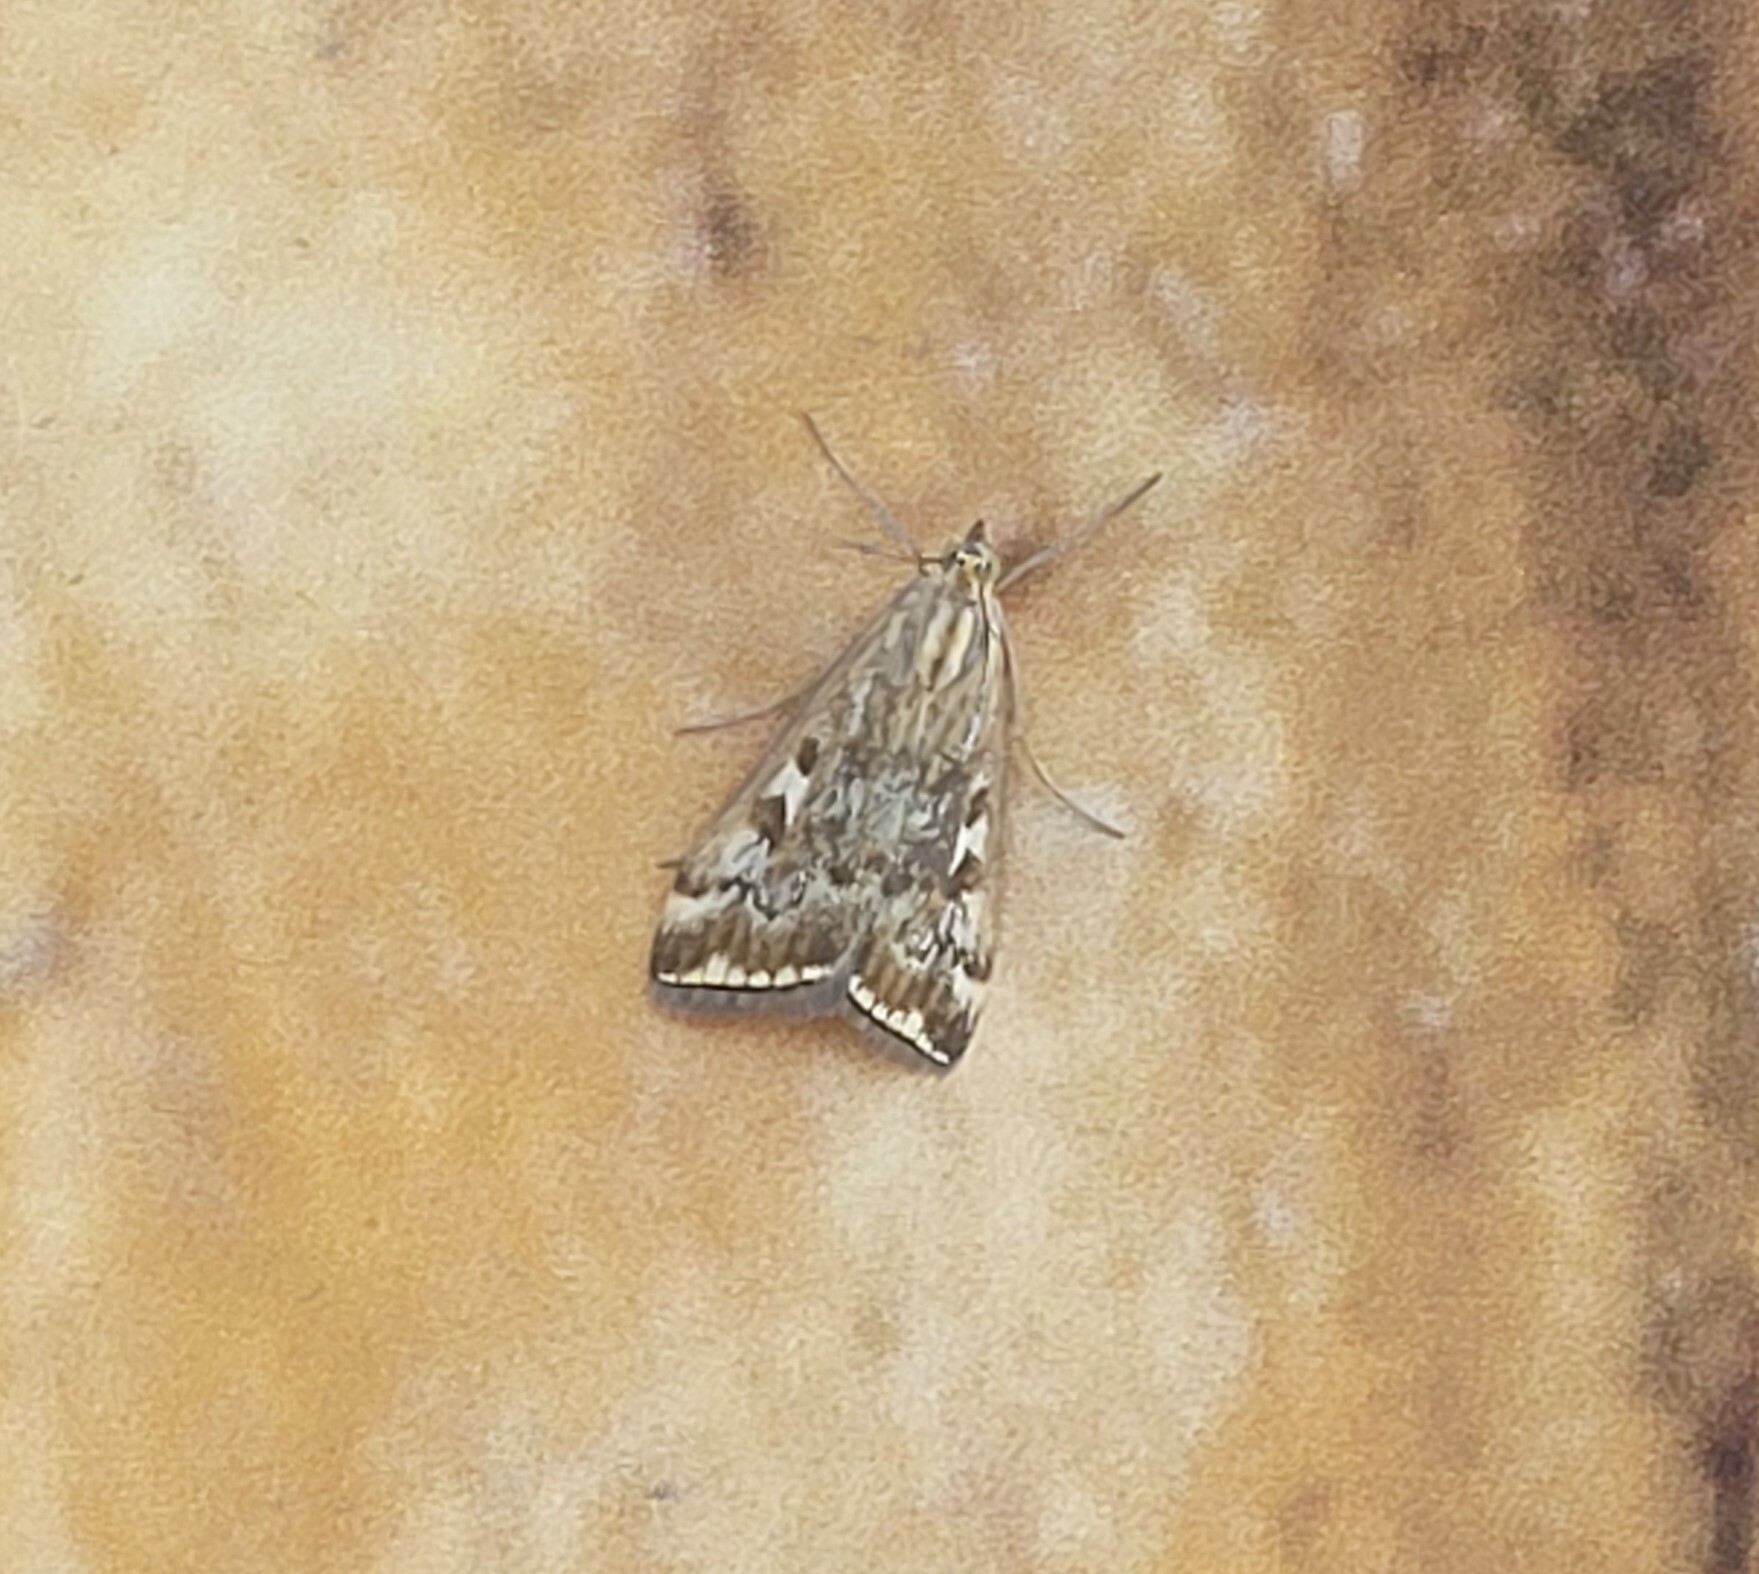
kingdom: Animalia
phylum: Arthropoda
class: Insecta
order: Lepidoptera
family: Crambidae
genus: Loxostege
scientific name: Loxostege sticticalis
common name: Crambid moth
